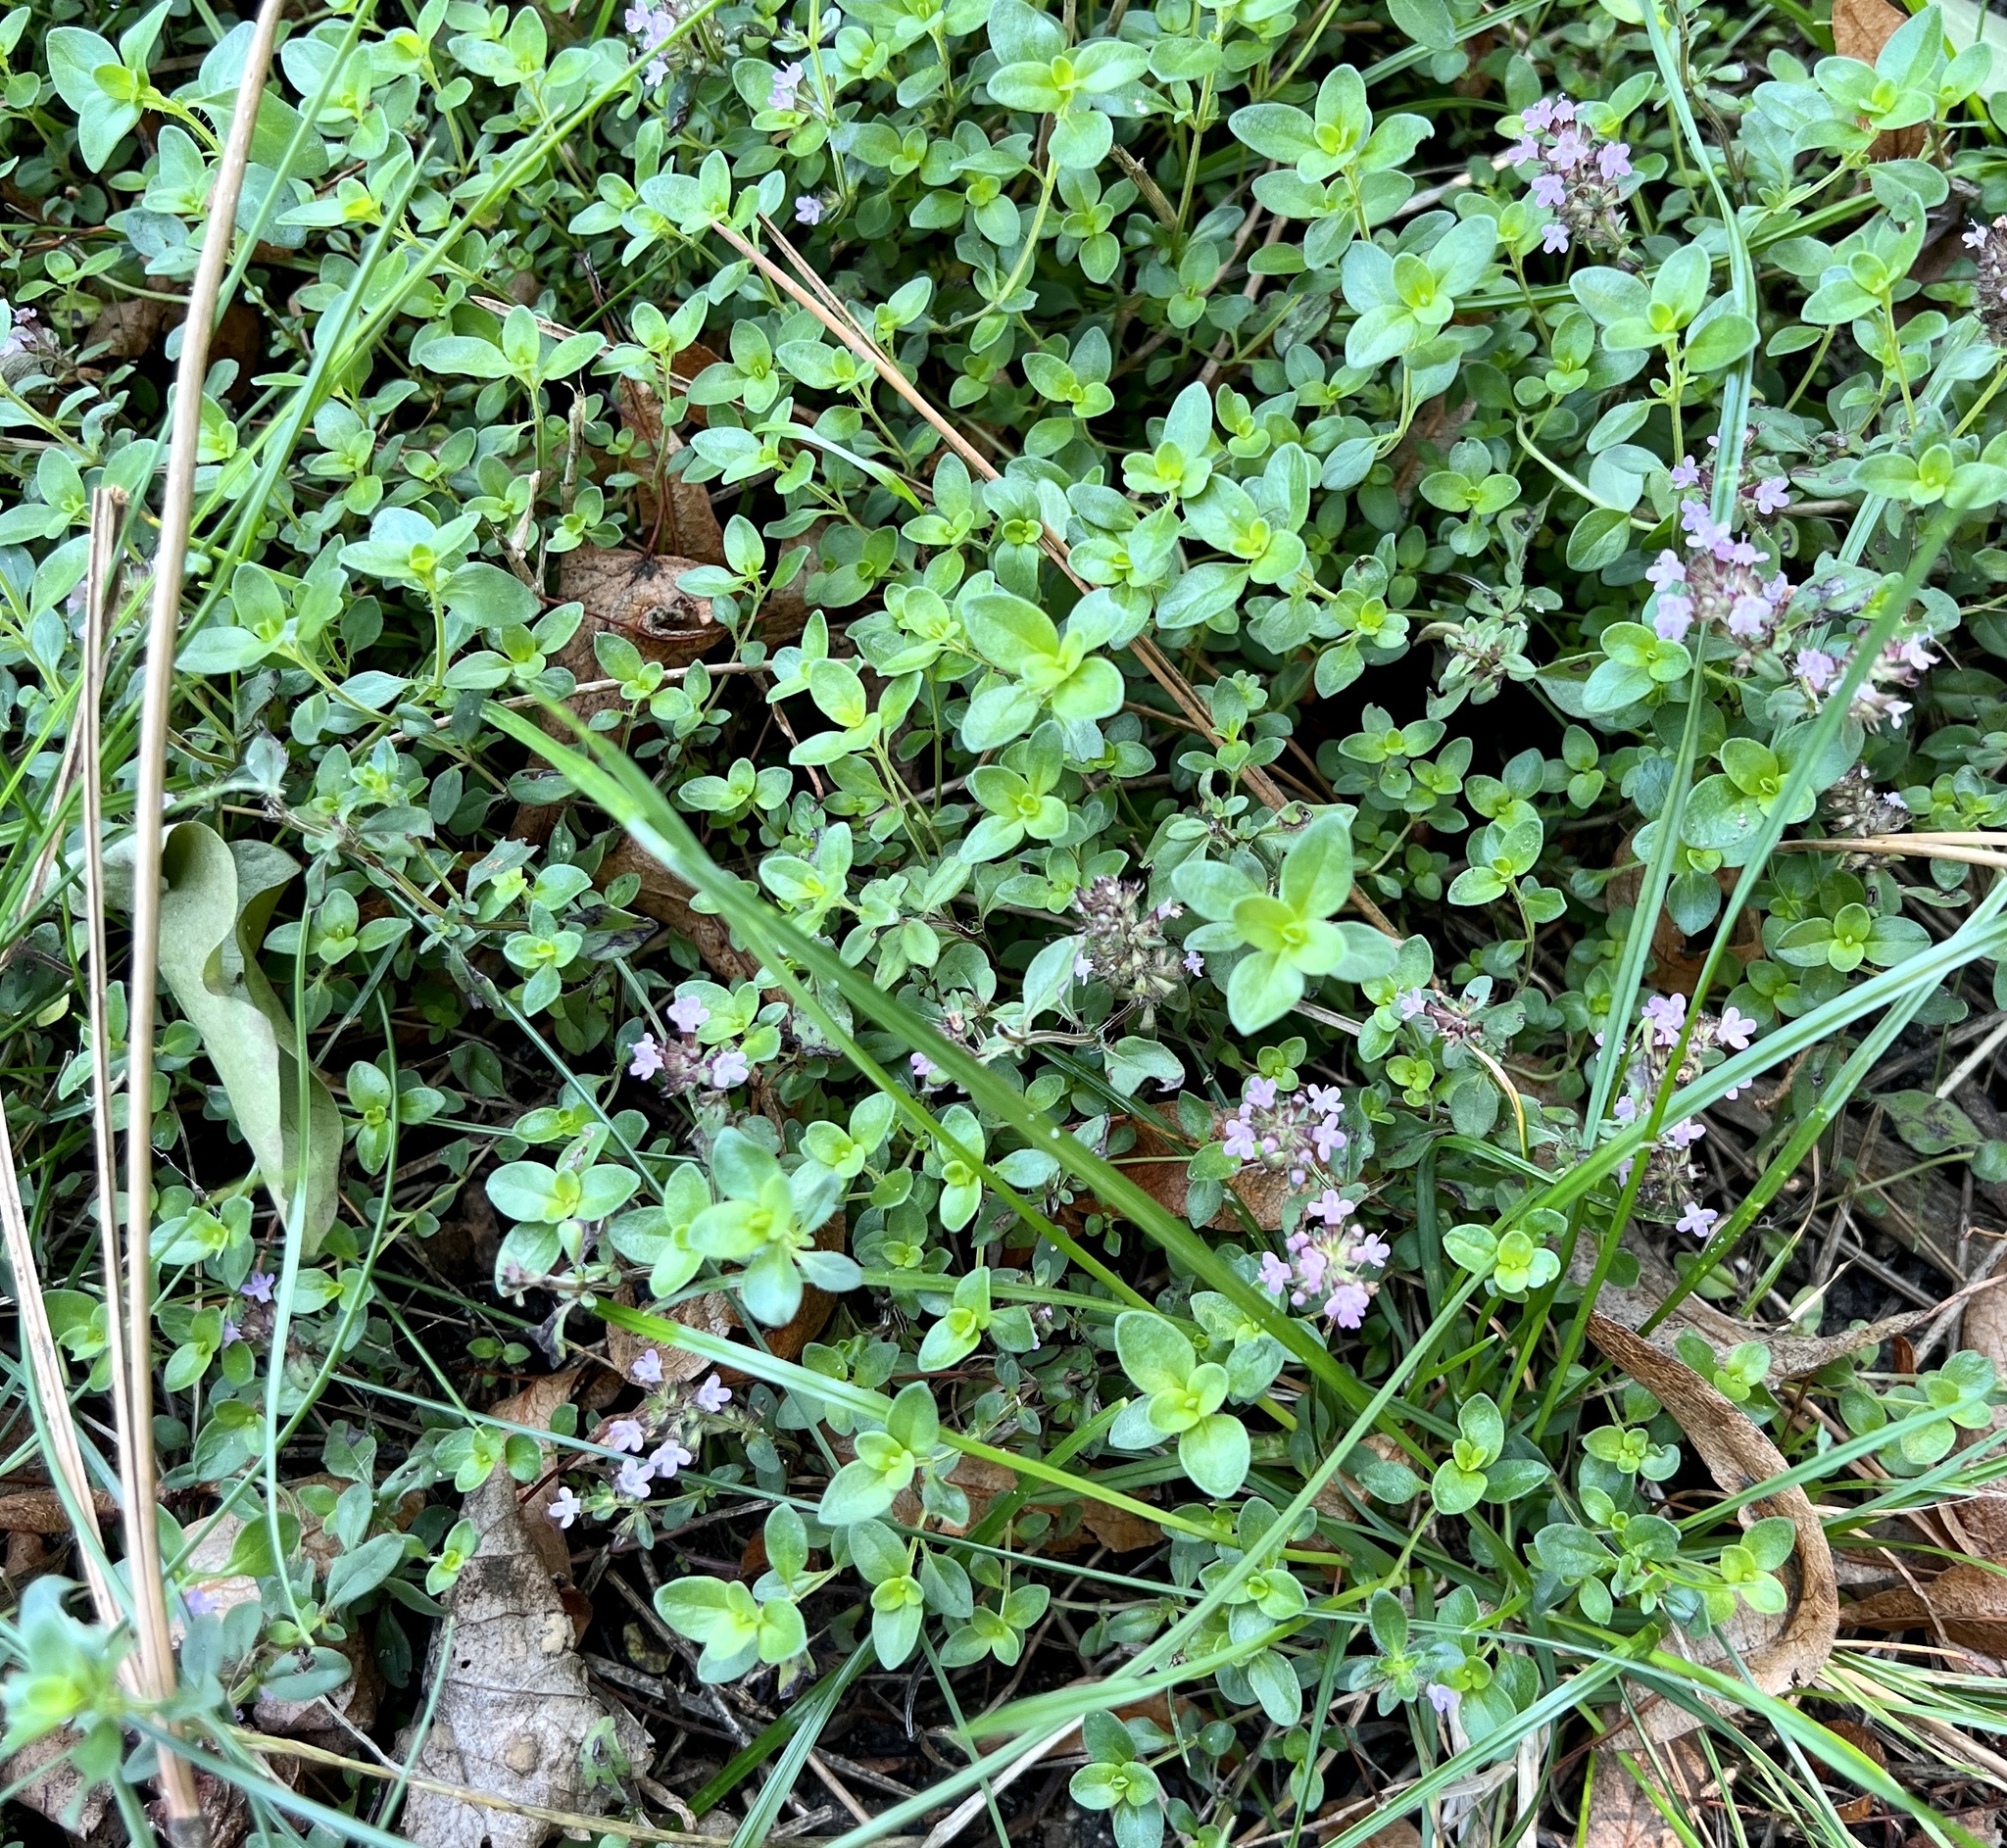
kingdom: Plantae
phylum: Tracheophyta
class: Magnoliopsida
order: Lamiales
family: Lamiaceae
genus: Thymus
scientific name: Thymus pulegioides
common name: Large thyme
